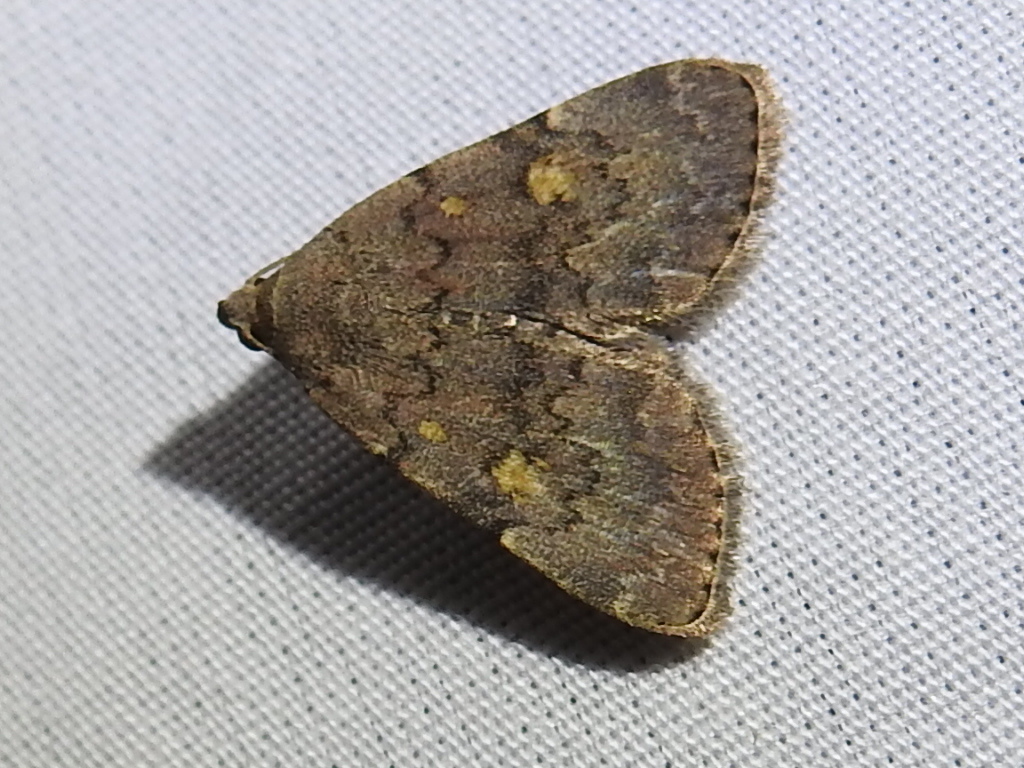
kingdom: Animalia
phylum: Arthropoda
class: Insecta
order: Lepidoptera
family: Erebidae
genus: Idia
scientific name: Idia aemula
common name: Common idia moth
